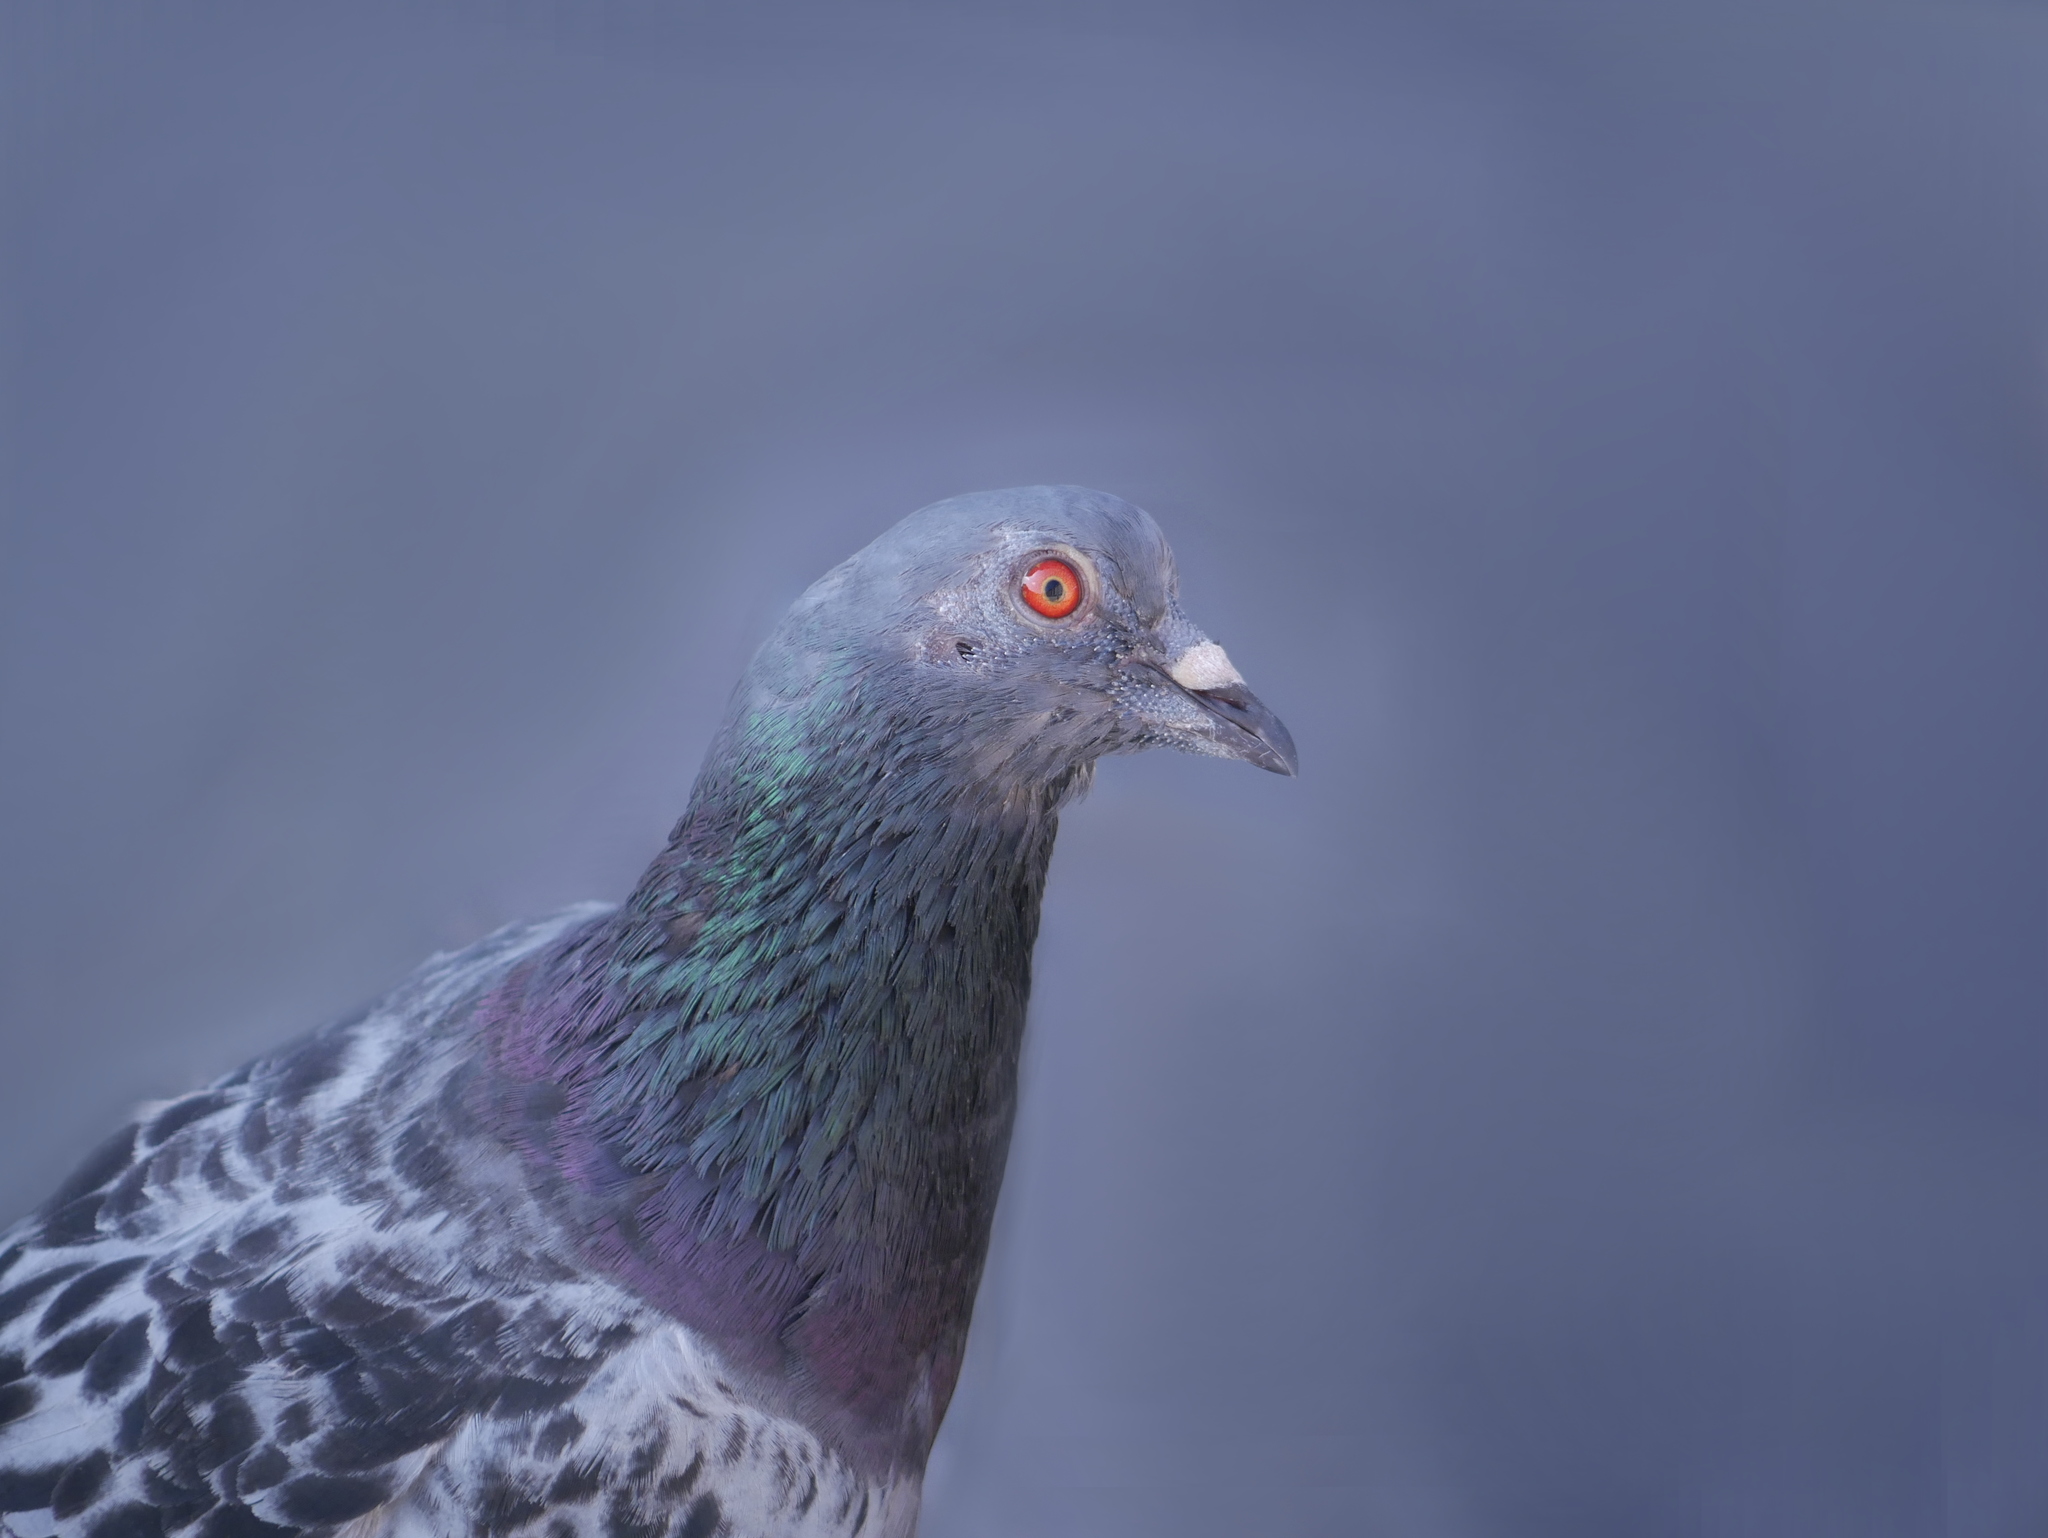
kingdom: Animalia
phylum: Chordata
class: Aves
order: Columbiformes
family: Columbidae
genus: Columba
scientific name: Columba livia
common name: Rock pigeon
